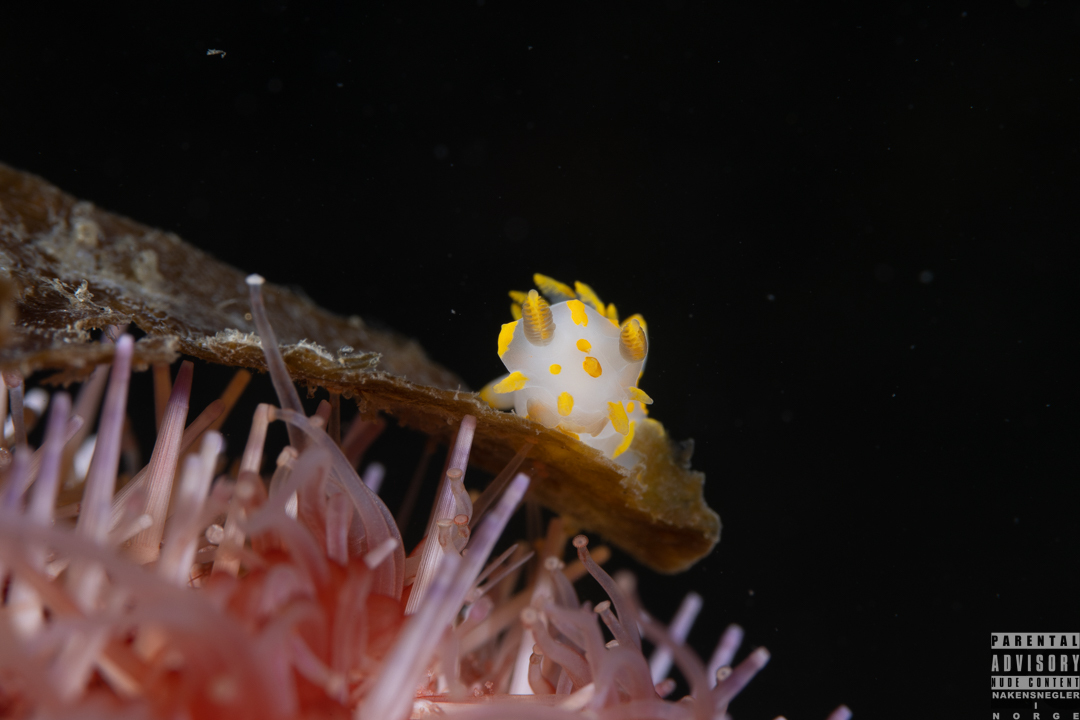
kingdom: Animalia
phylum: Mollusca
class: Gastropoda
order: Nudibranchia
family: Polyceridae
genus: Polycera
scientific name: Polycera quadrilineata
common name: Four-striped polycera
